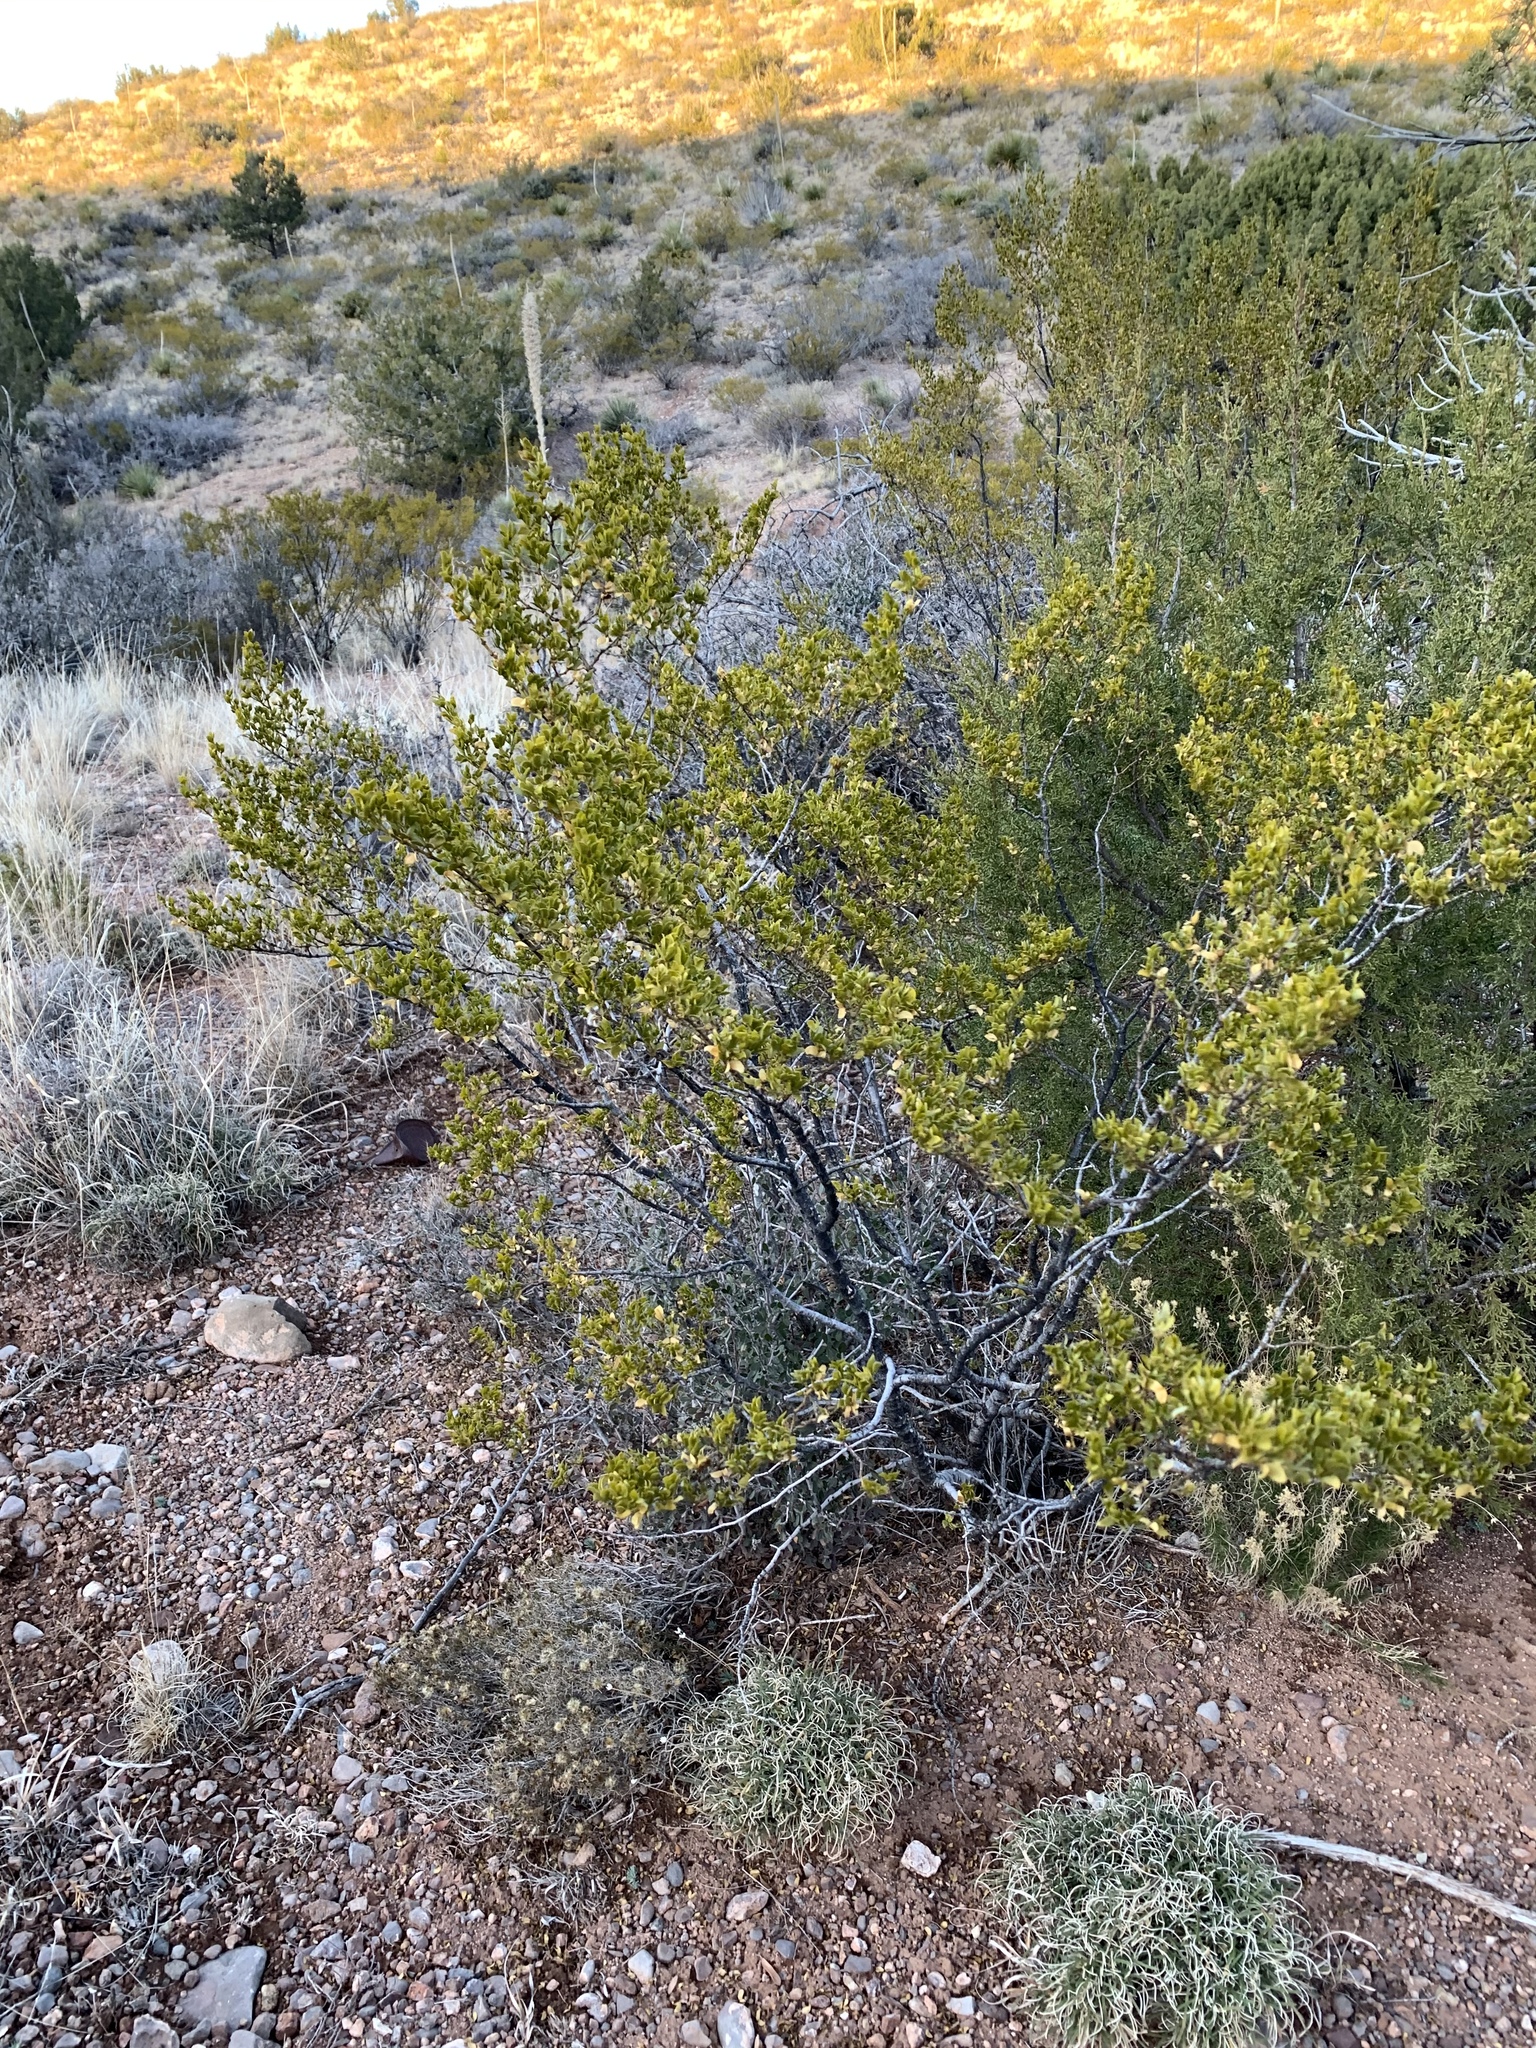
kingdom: Plantae
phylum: Tracheophyta
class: Magnoliopsida
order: Zygophyllales
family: Zygophyllaceae
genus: Larrea
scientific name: Larrea tridentata
